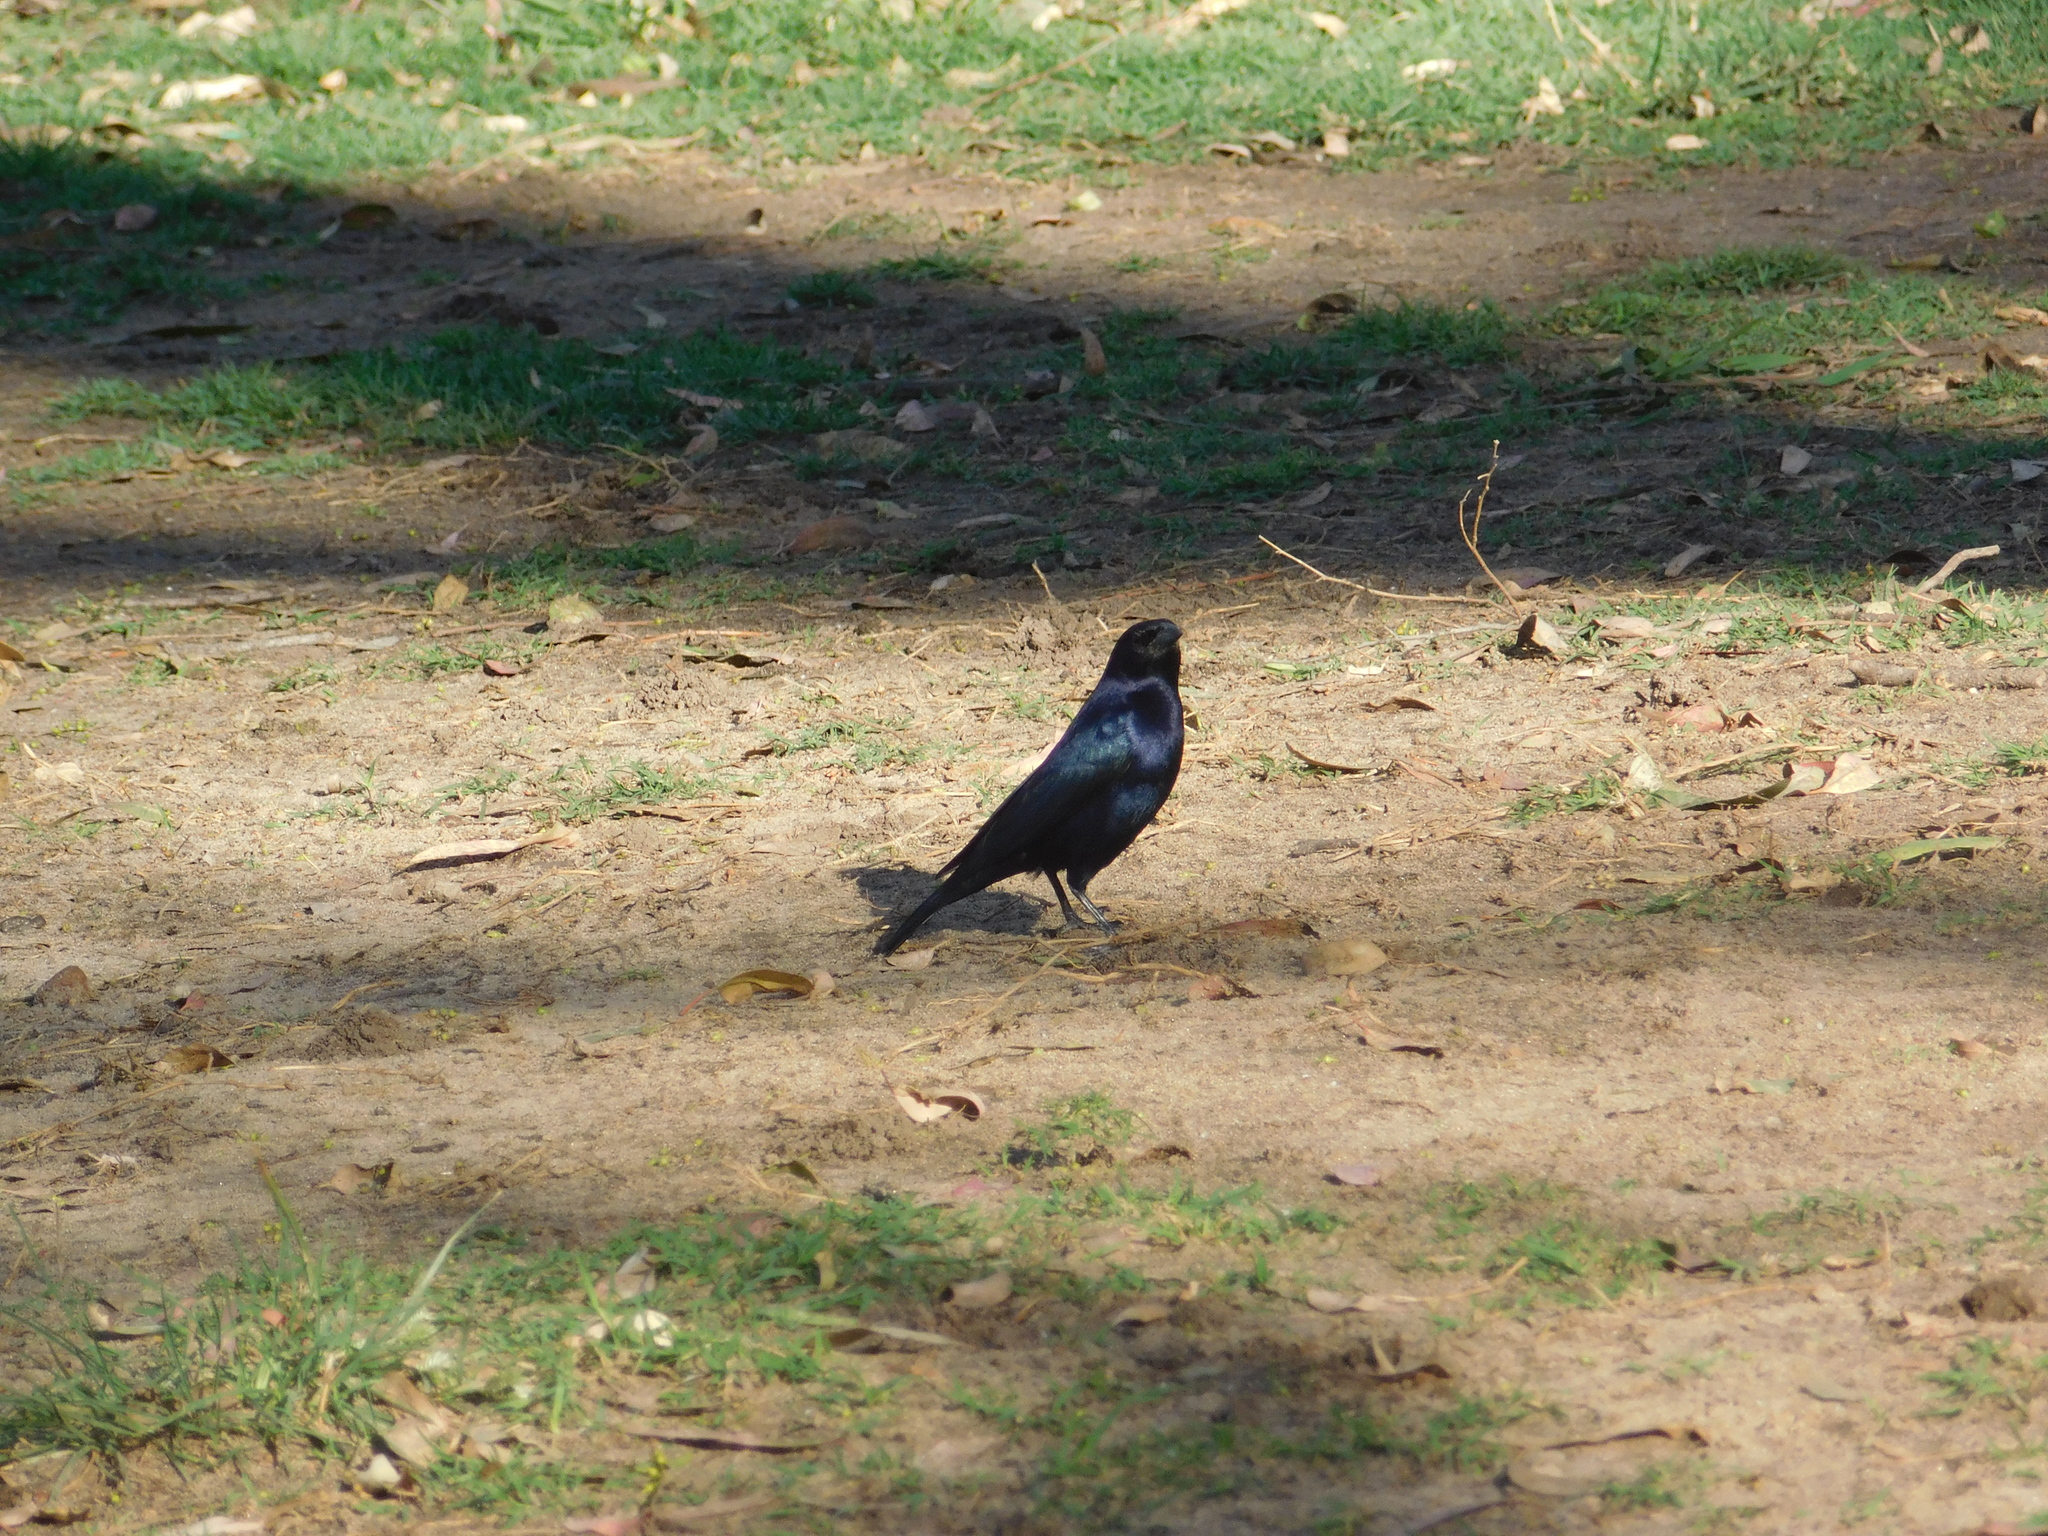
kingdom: Animalia
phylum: Chordata
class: Aves
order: Passeriformes
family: Icteridae
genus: Molothrus
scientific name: Molothrus bonariensis
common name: Shiny cowbird
